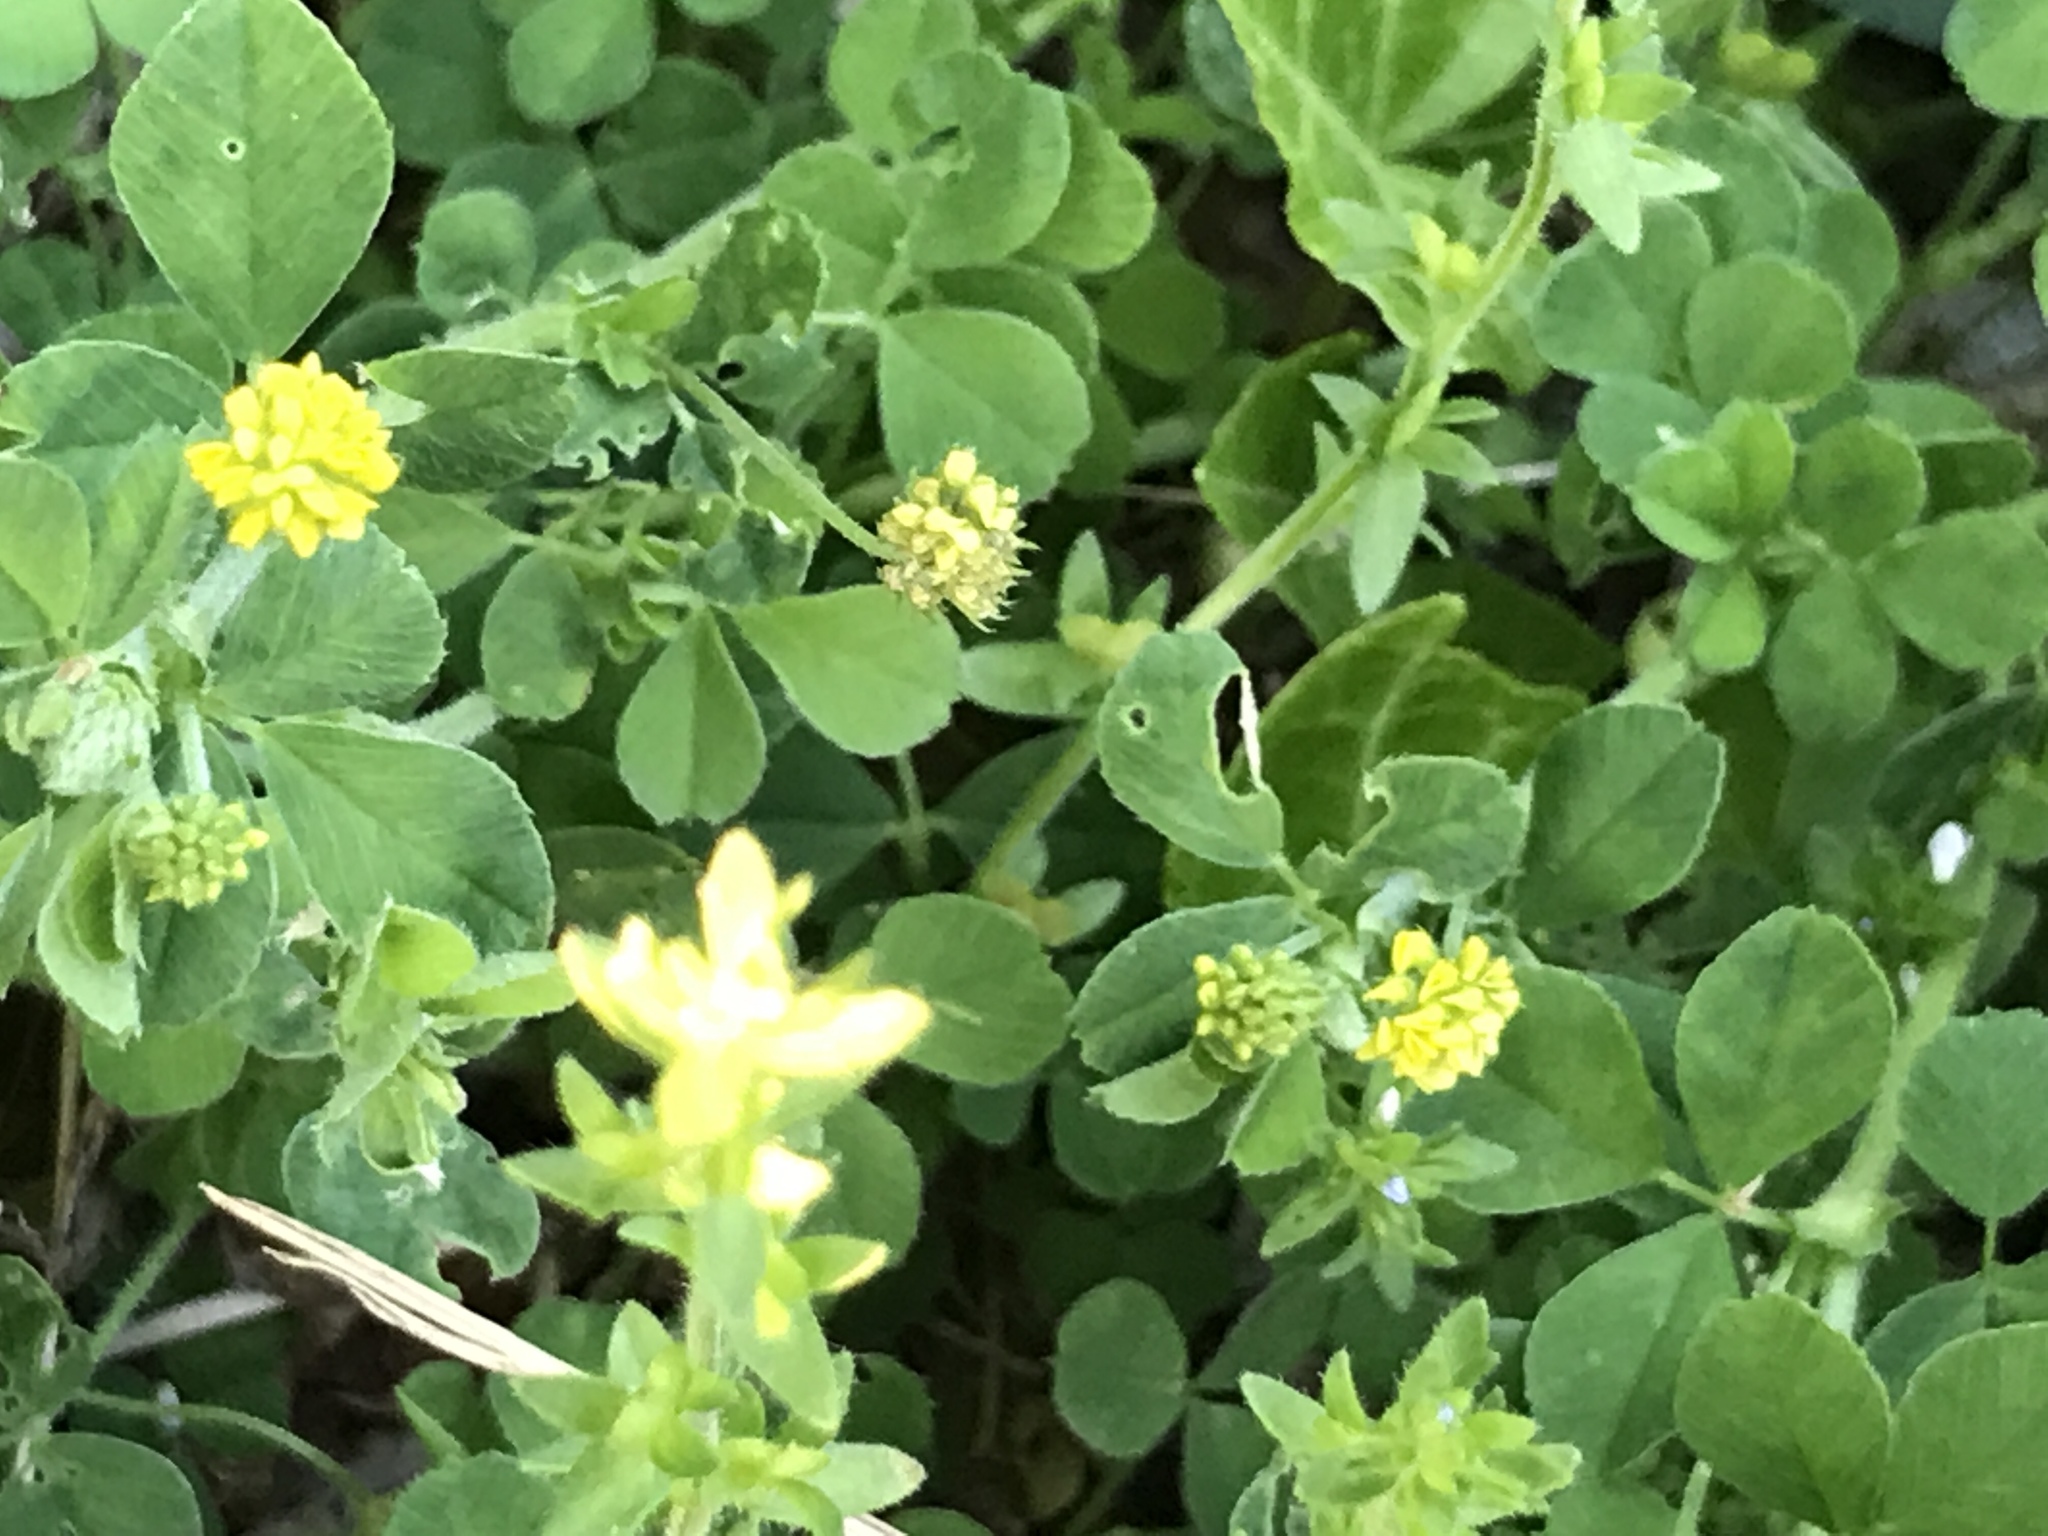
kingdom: Plantae
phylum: Tracheophyta
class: Magnoliopsida
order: Fabales
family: Fabaceae
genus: Medicago
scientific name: Medicago lupulina
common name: Black medick
